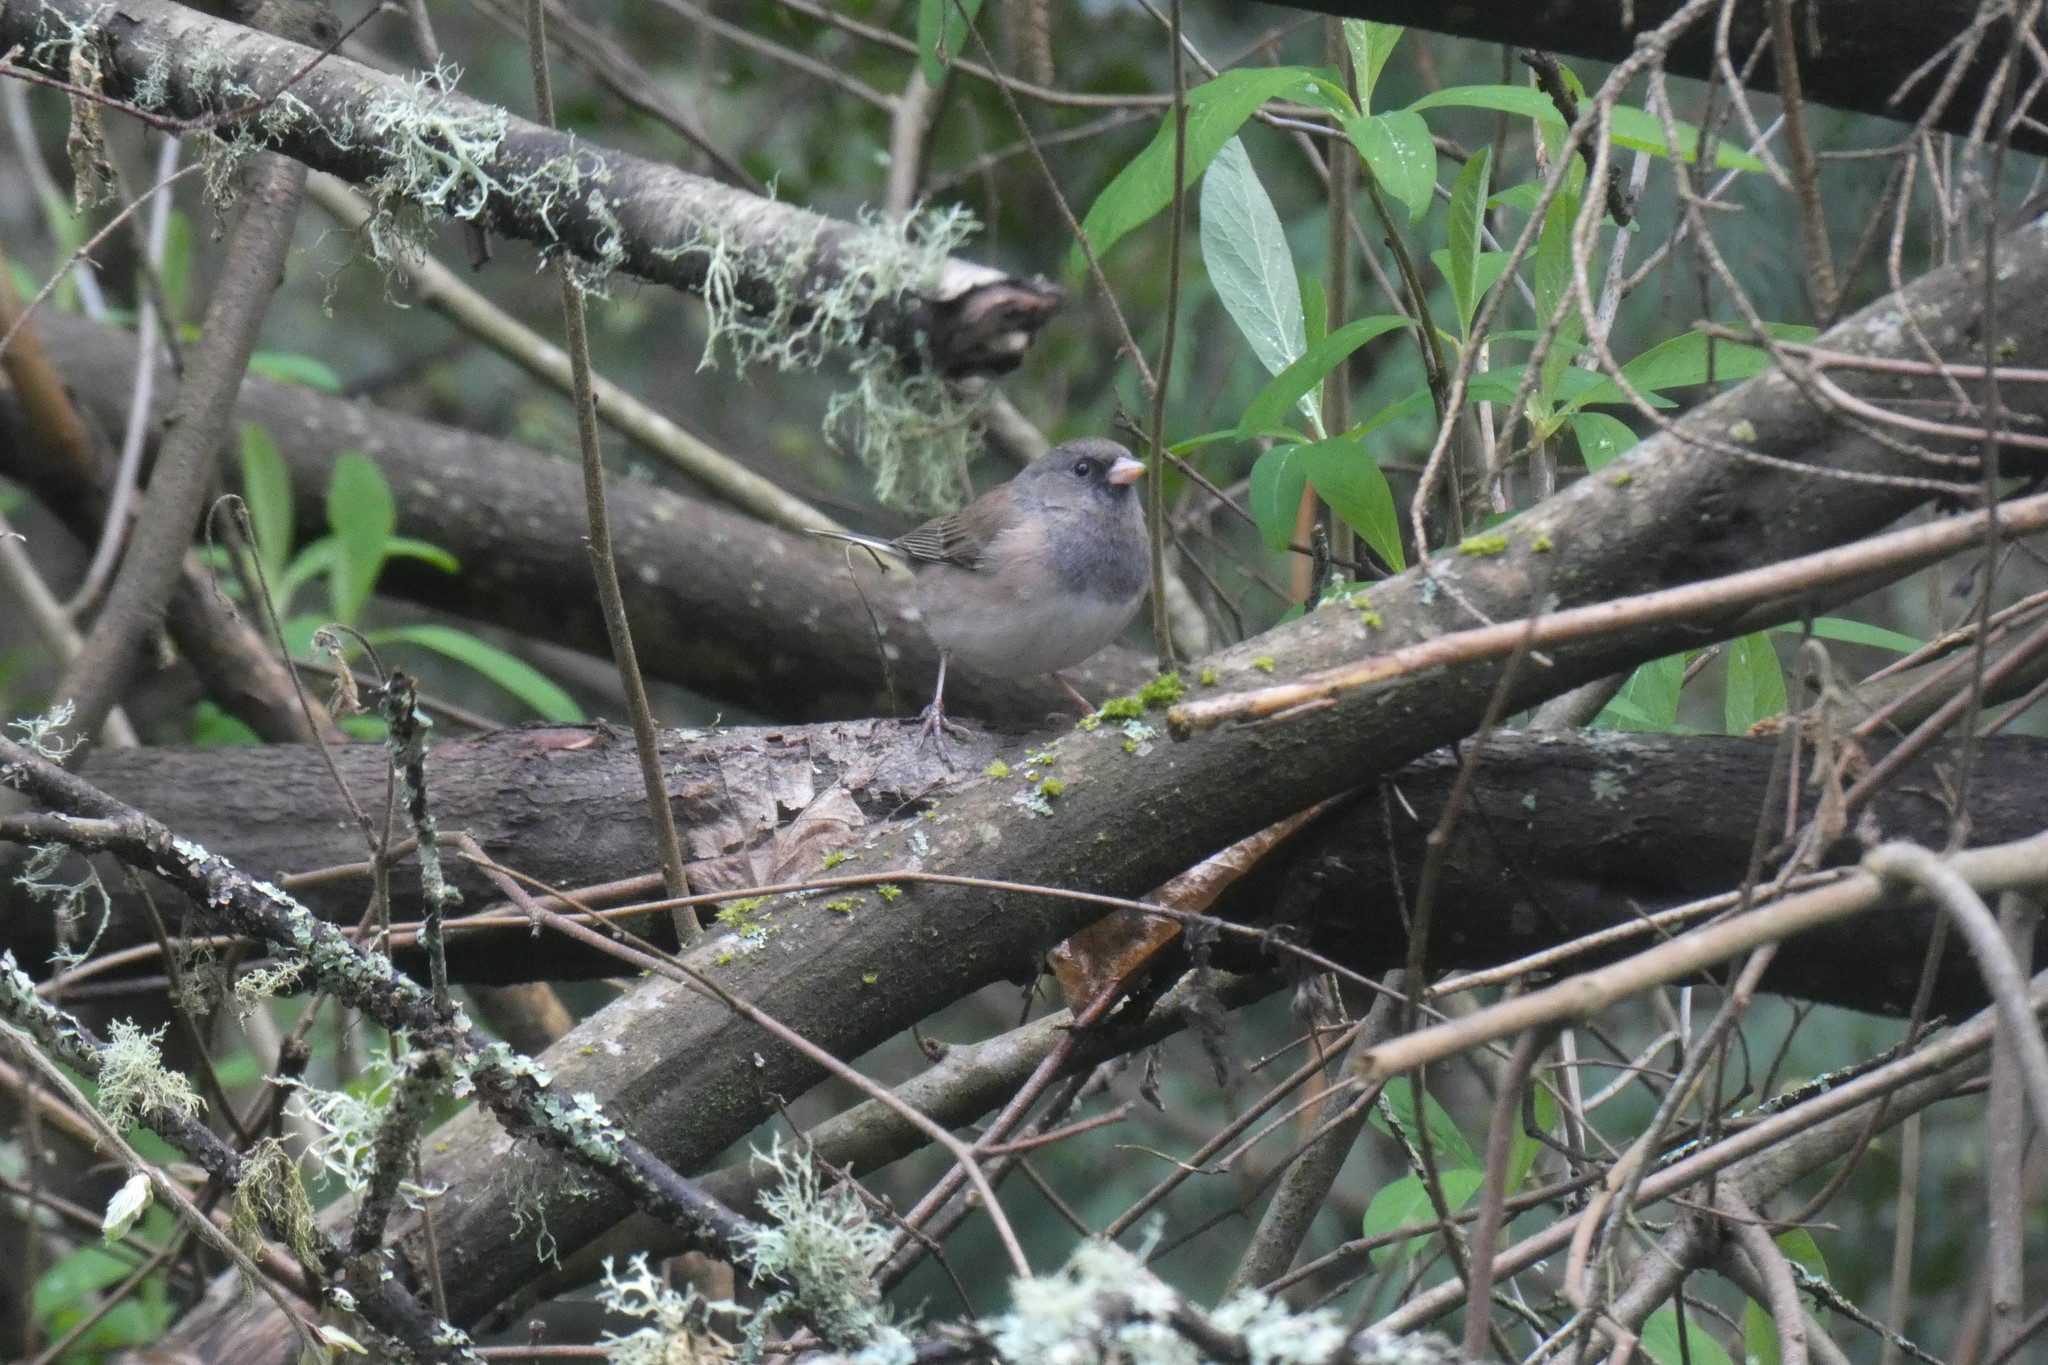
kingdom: Animalia
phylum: Chordata
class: Aves
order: Passeriformes
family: Passerellidae
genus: Junco
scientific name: Junco hyemalis
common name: Dark-eyed junco
